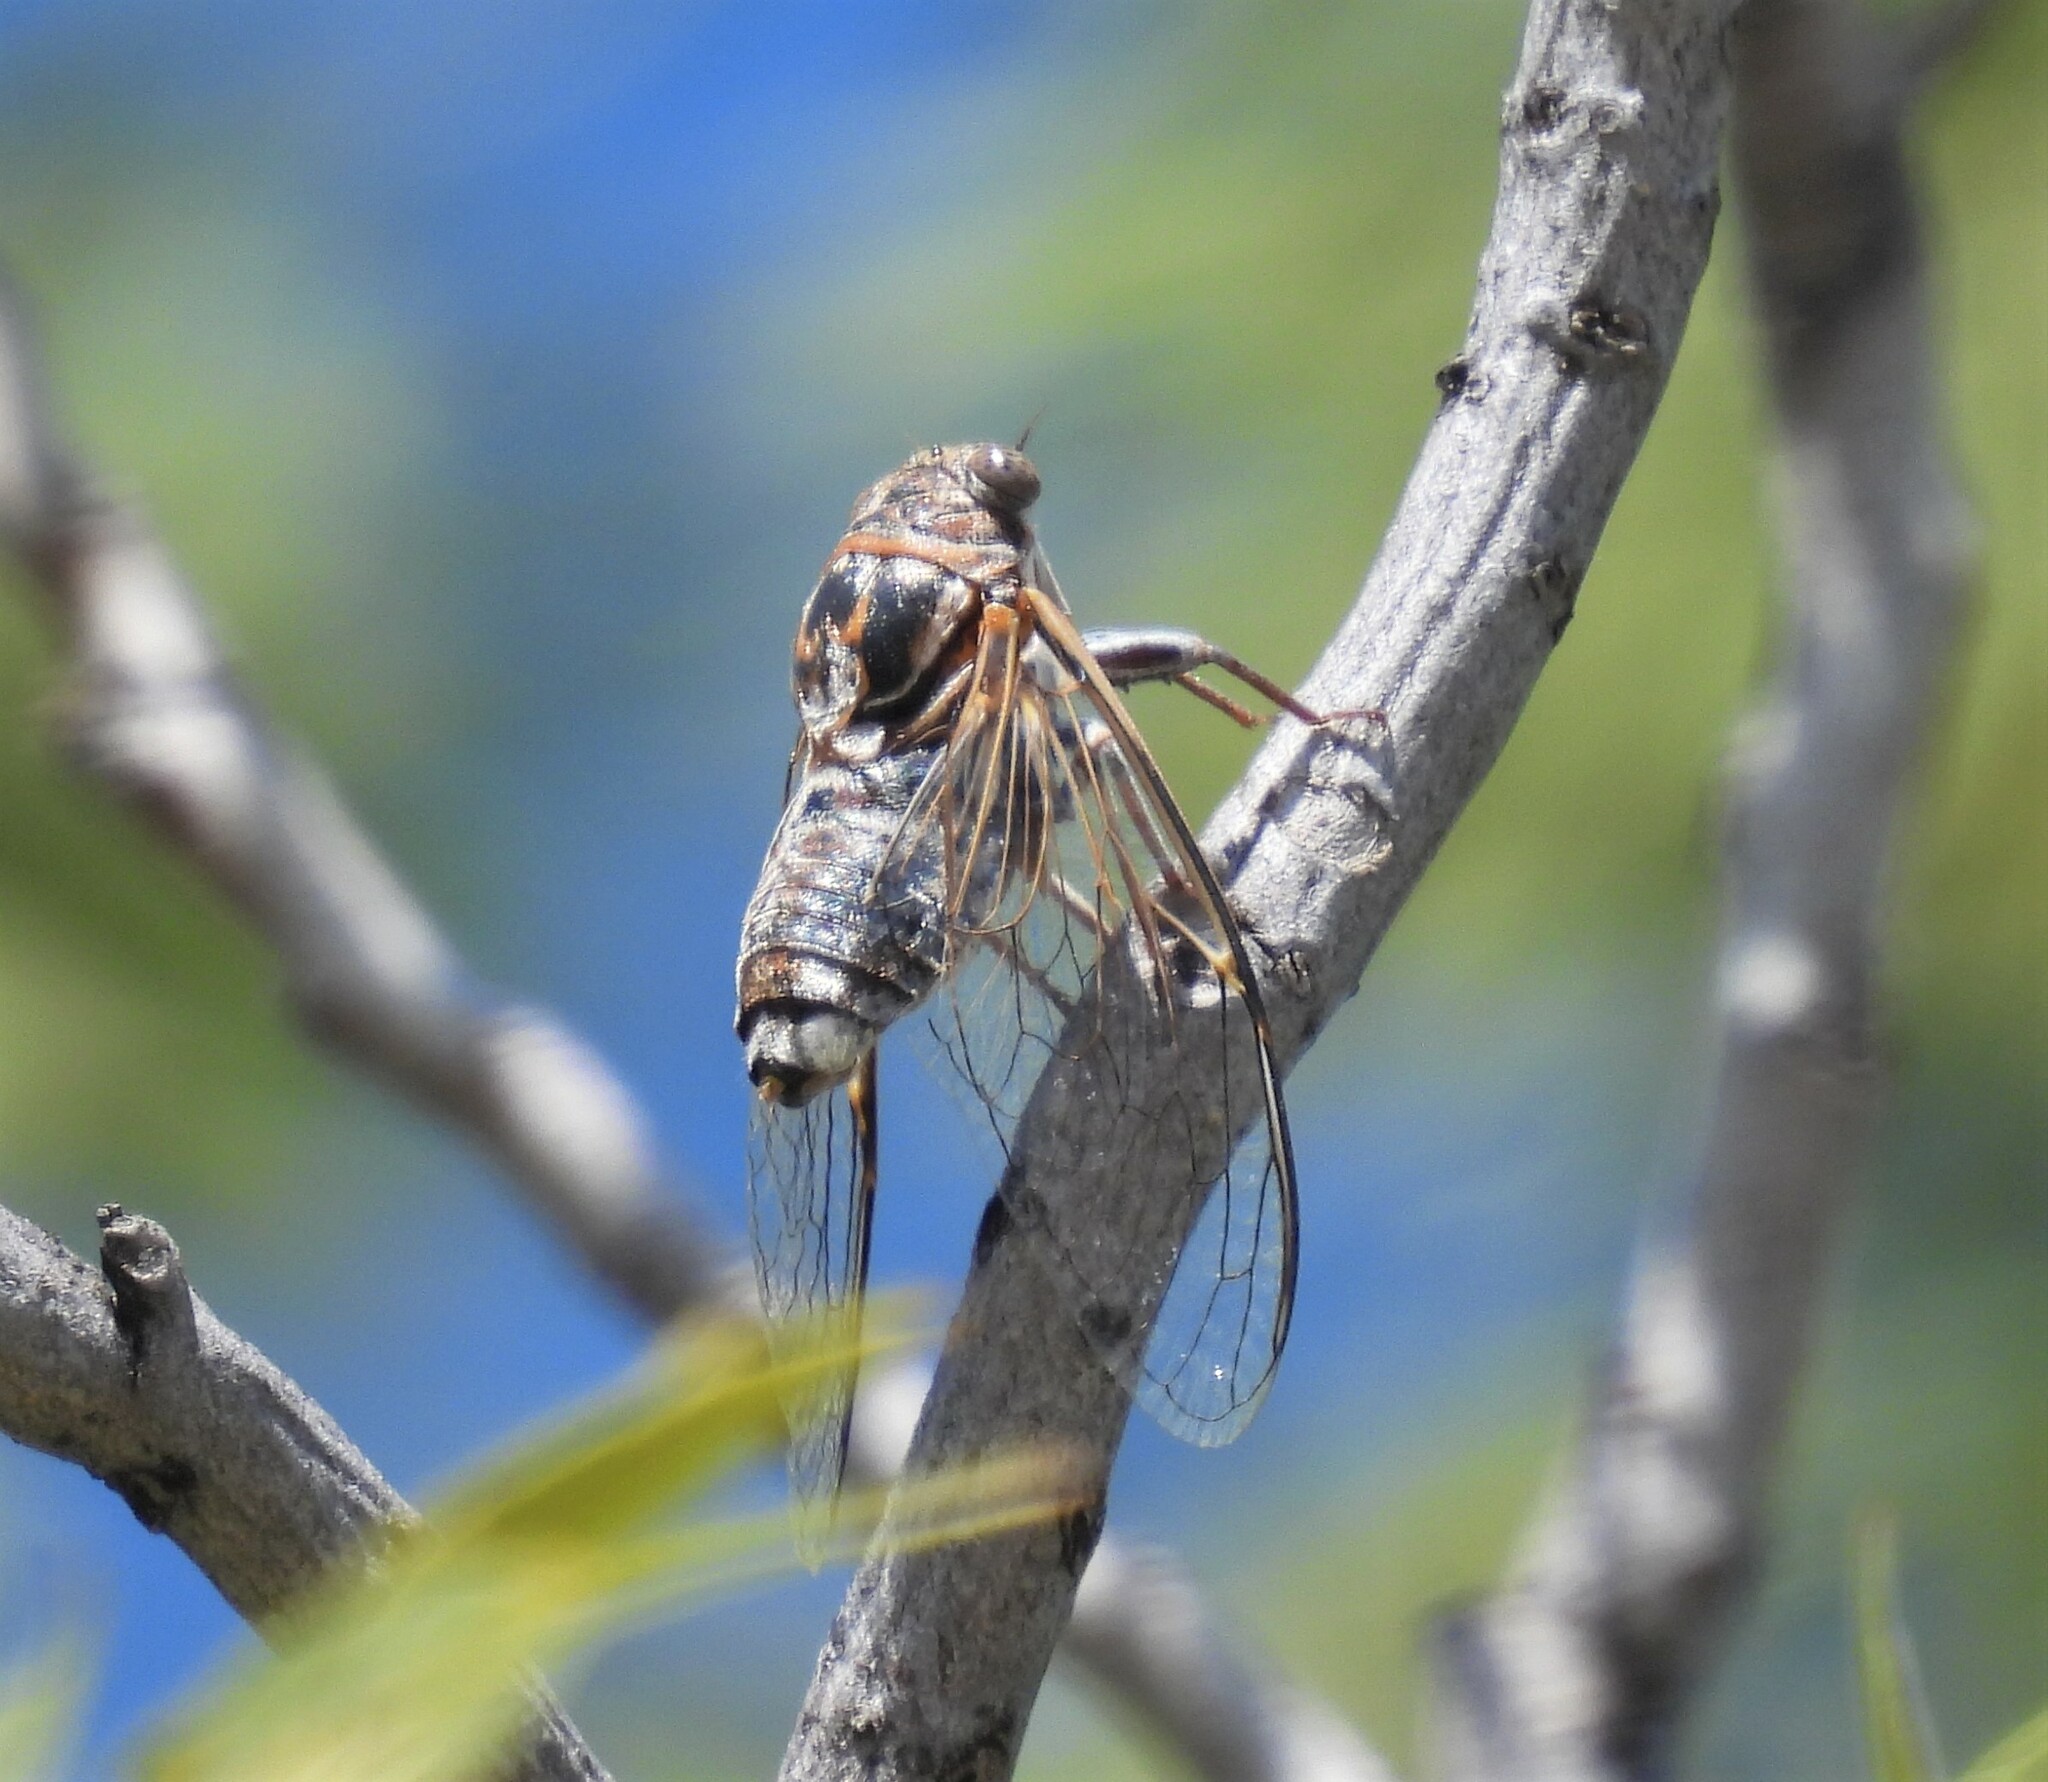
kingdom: Animalia
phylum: Arthropoda
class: Insecta
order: Hemiptera
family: Cicadidae
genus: Diceroprocta
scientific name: Diceroprocta eugraphica
